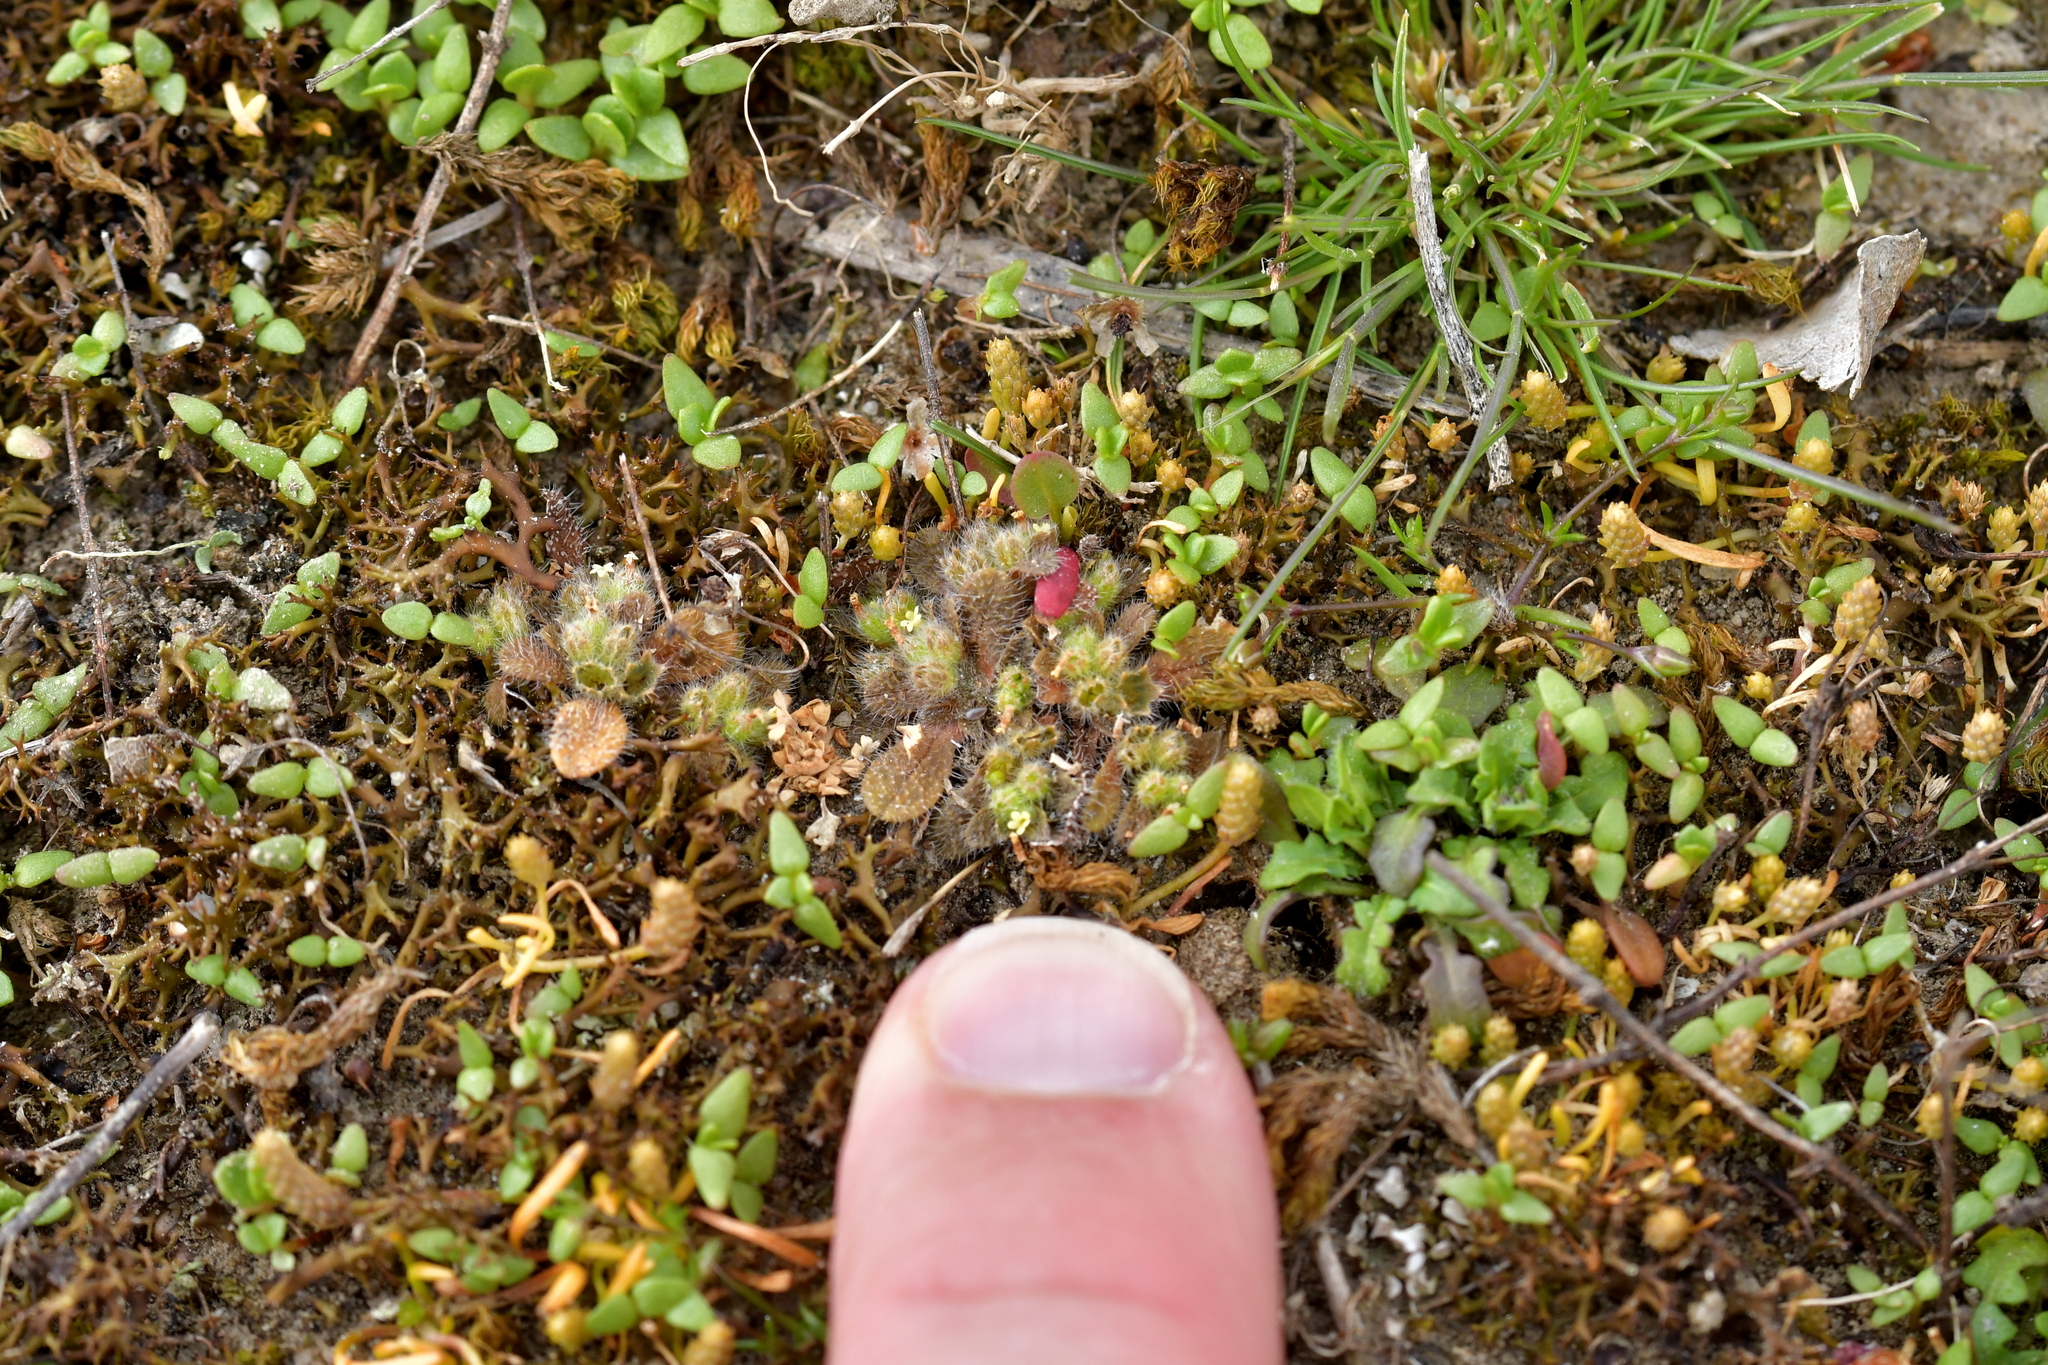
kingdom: Plantae
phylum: Tracheophyta
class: Magnoliopsida
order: Boraginales
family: Boraginaceae
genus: Myosotis
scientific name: Myosotis brevis
